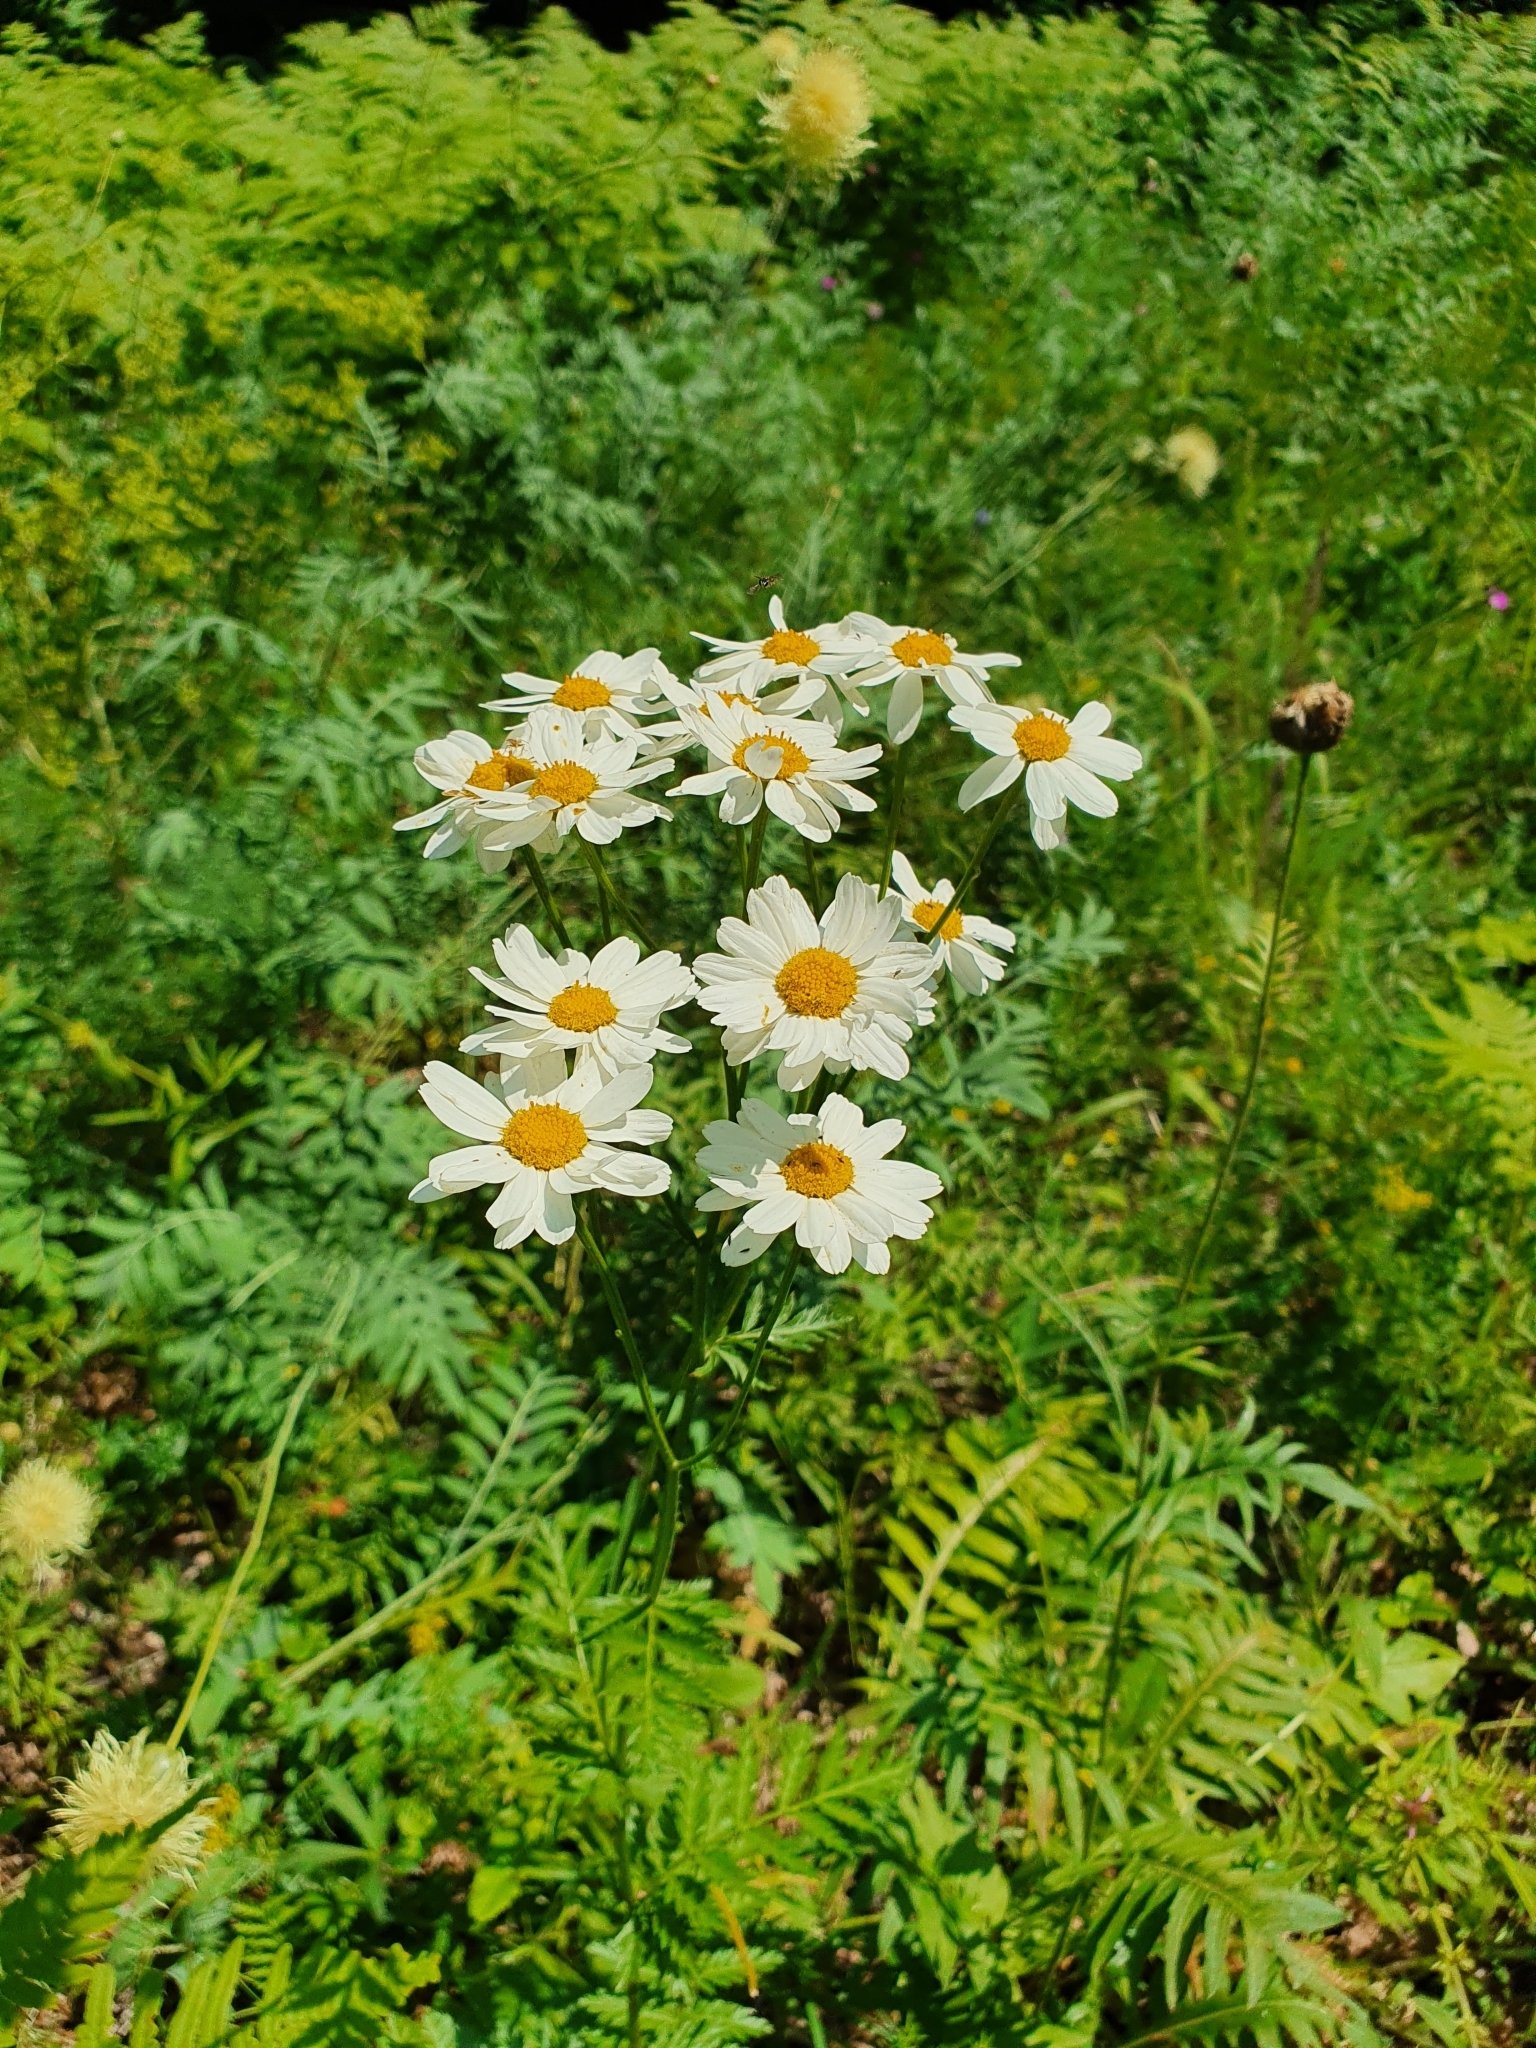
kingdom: Plantae
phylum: Tracheophyta
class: Magnoliopsida
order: Asterales
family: Asteraceae
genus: Tanacetum
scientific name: Tanacetum corymbosum
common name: Scentless feverfew
